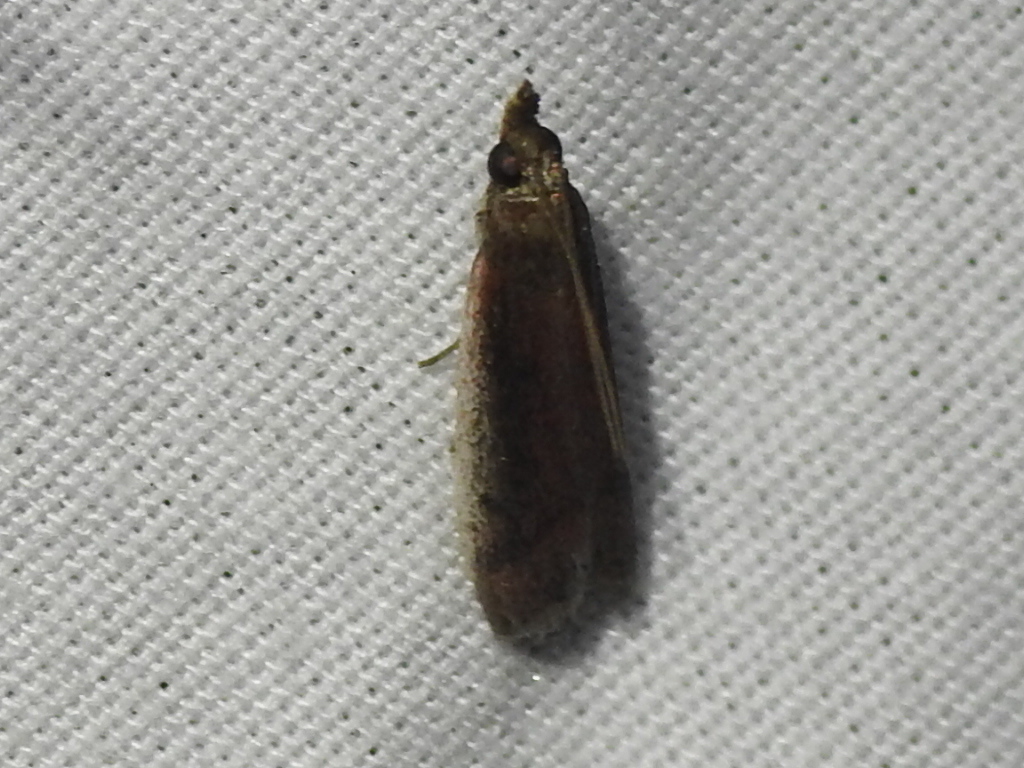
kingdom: Animalia
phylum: Arthropoda
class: Insecta
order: Lepidoptera
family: Pyralidae
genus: Atascosa
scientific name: Atascosa glareosella
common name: Rosy atascosa moth
